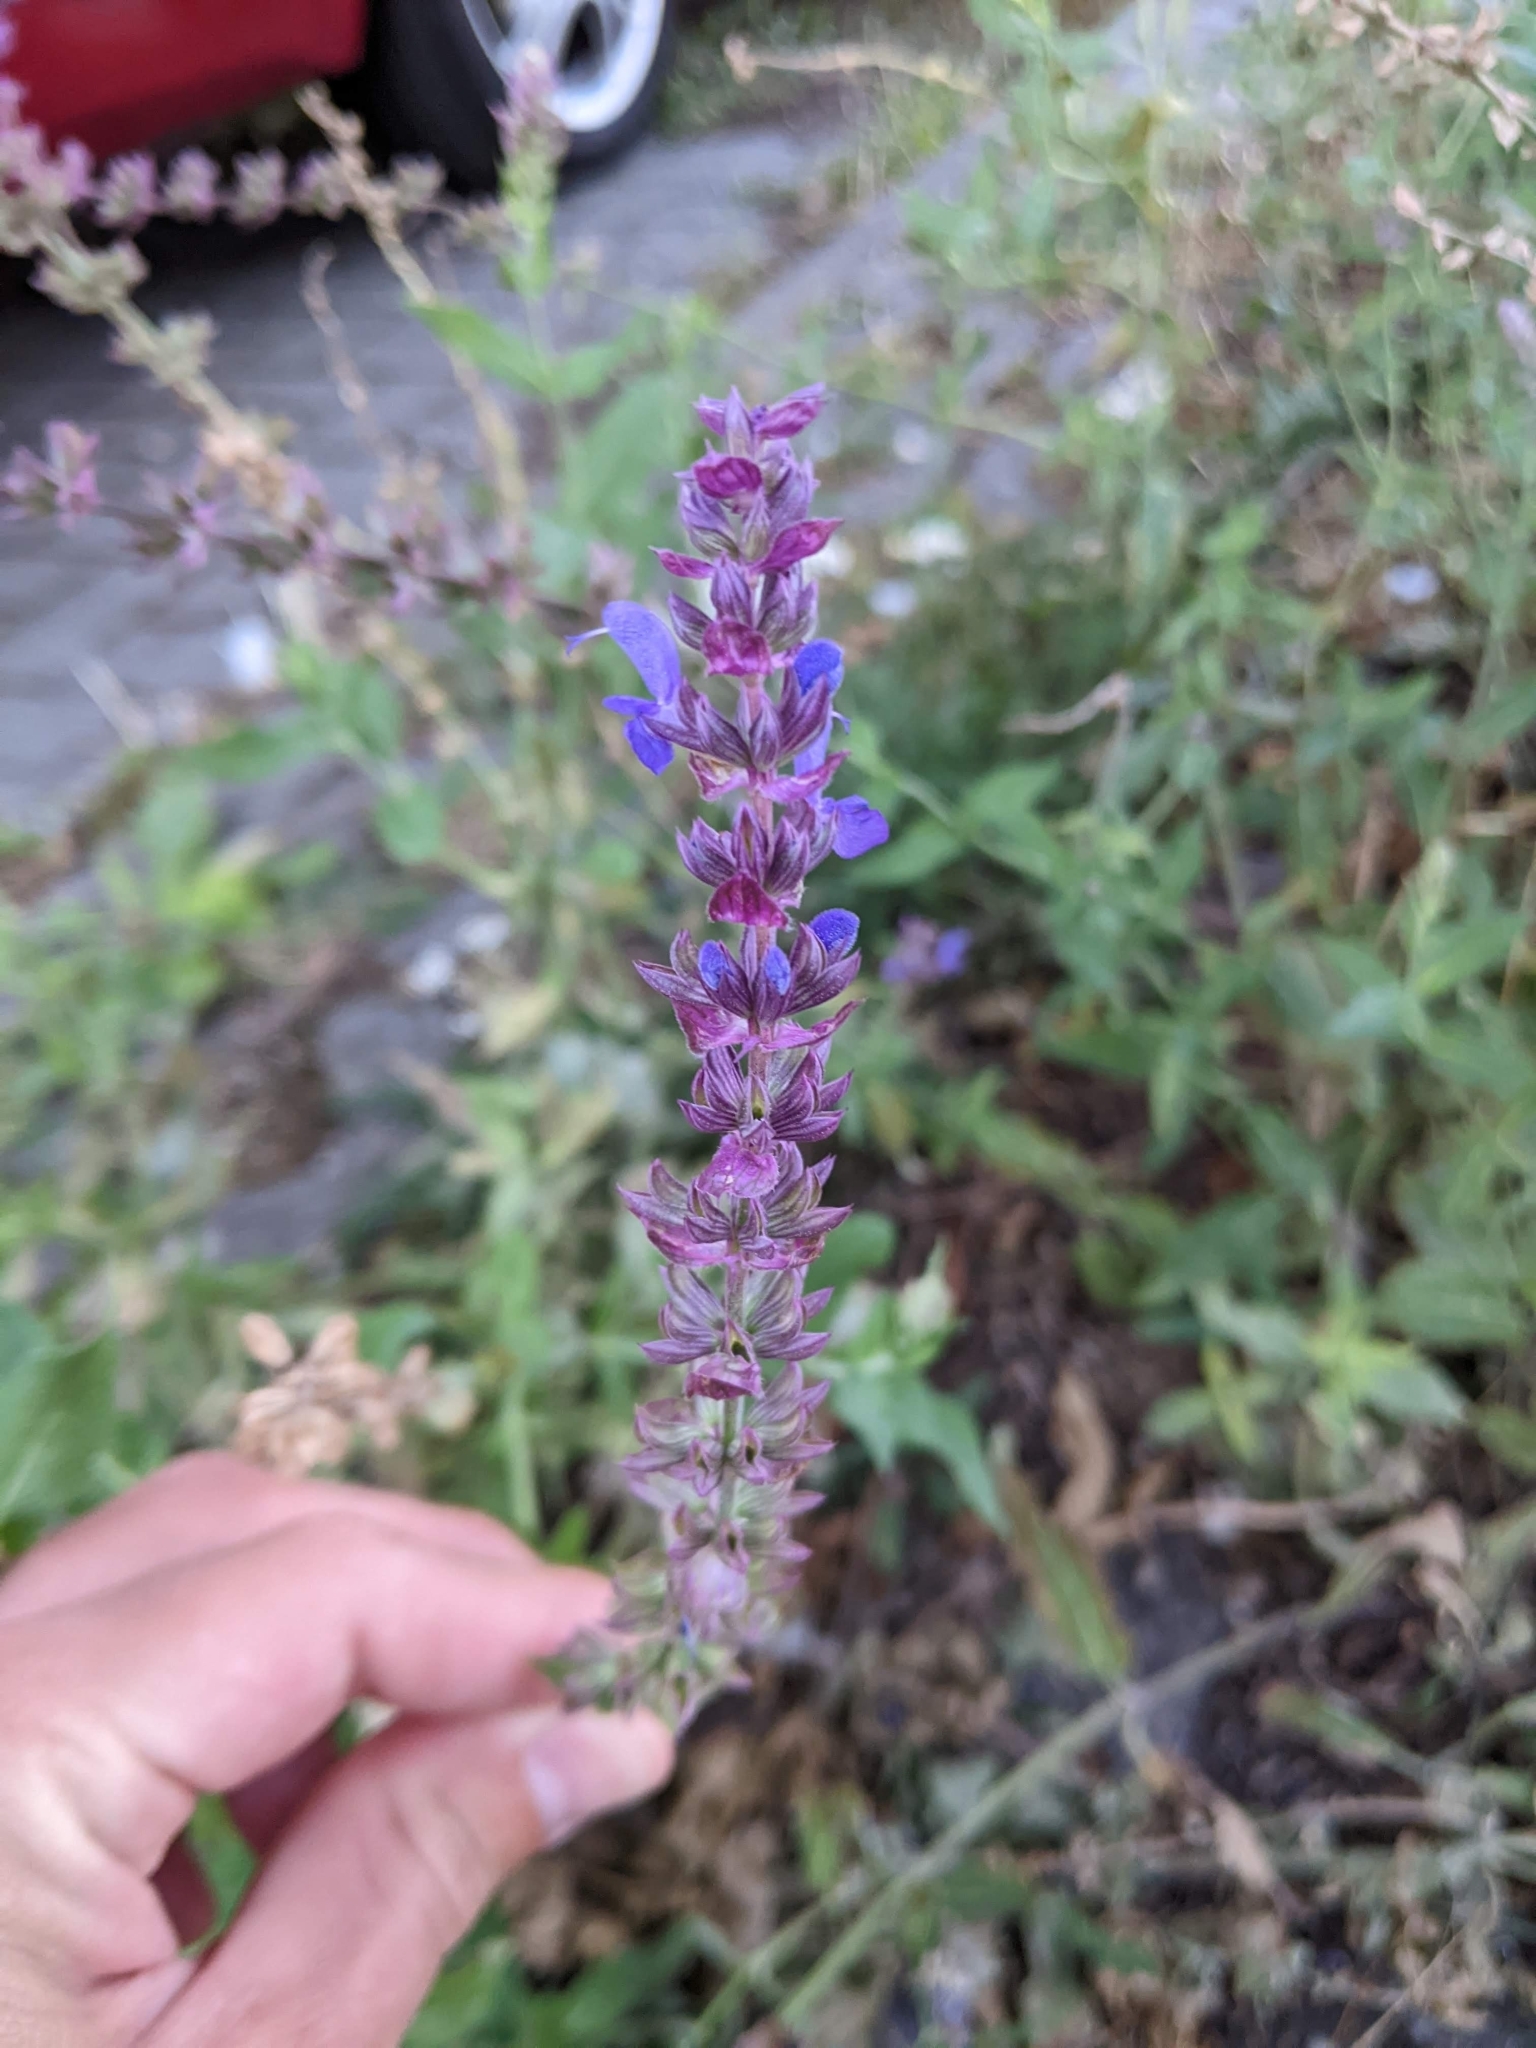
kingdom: Plantae
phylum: Tracheophyta
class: Magnoliopsida
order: Lamiales
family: Lamiaceae
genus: Salvia
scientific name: Salvia nemorosa
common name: Balkan clary
